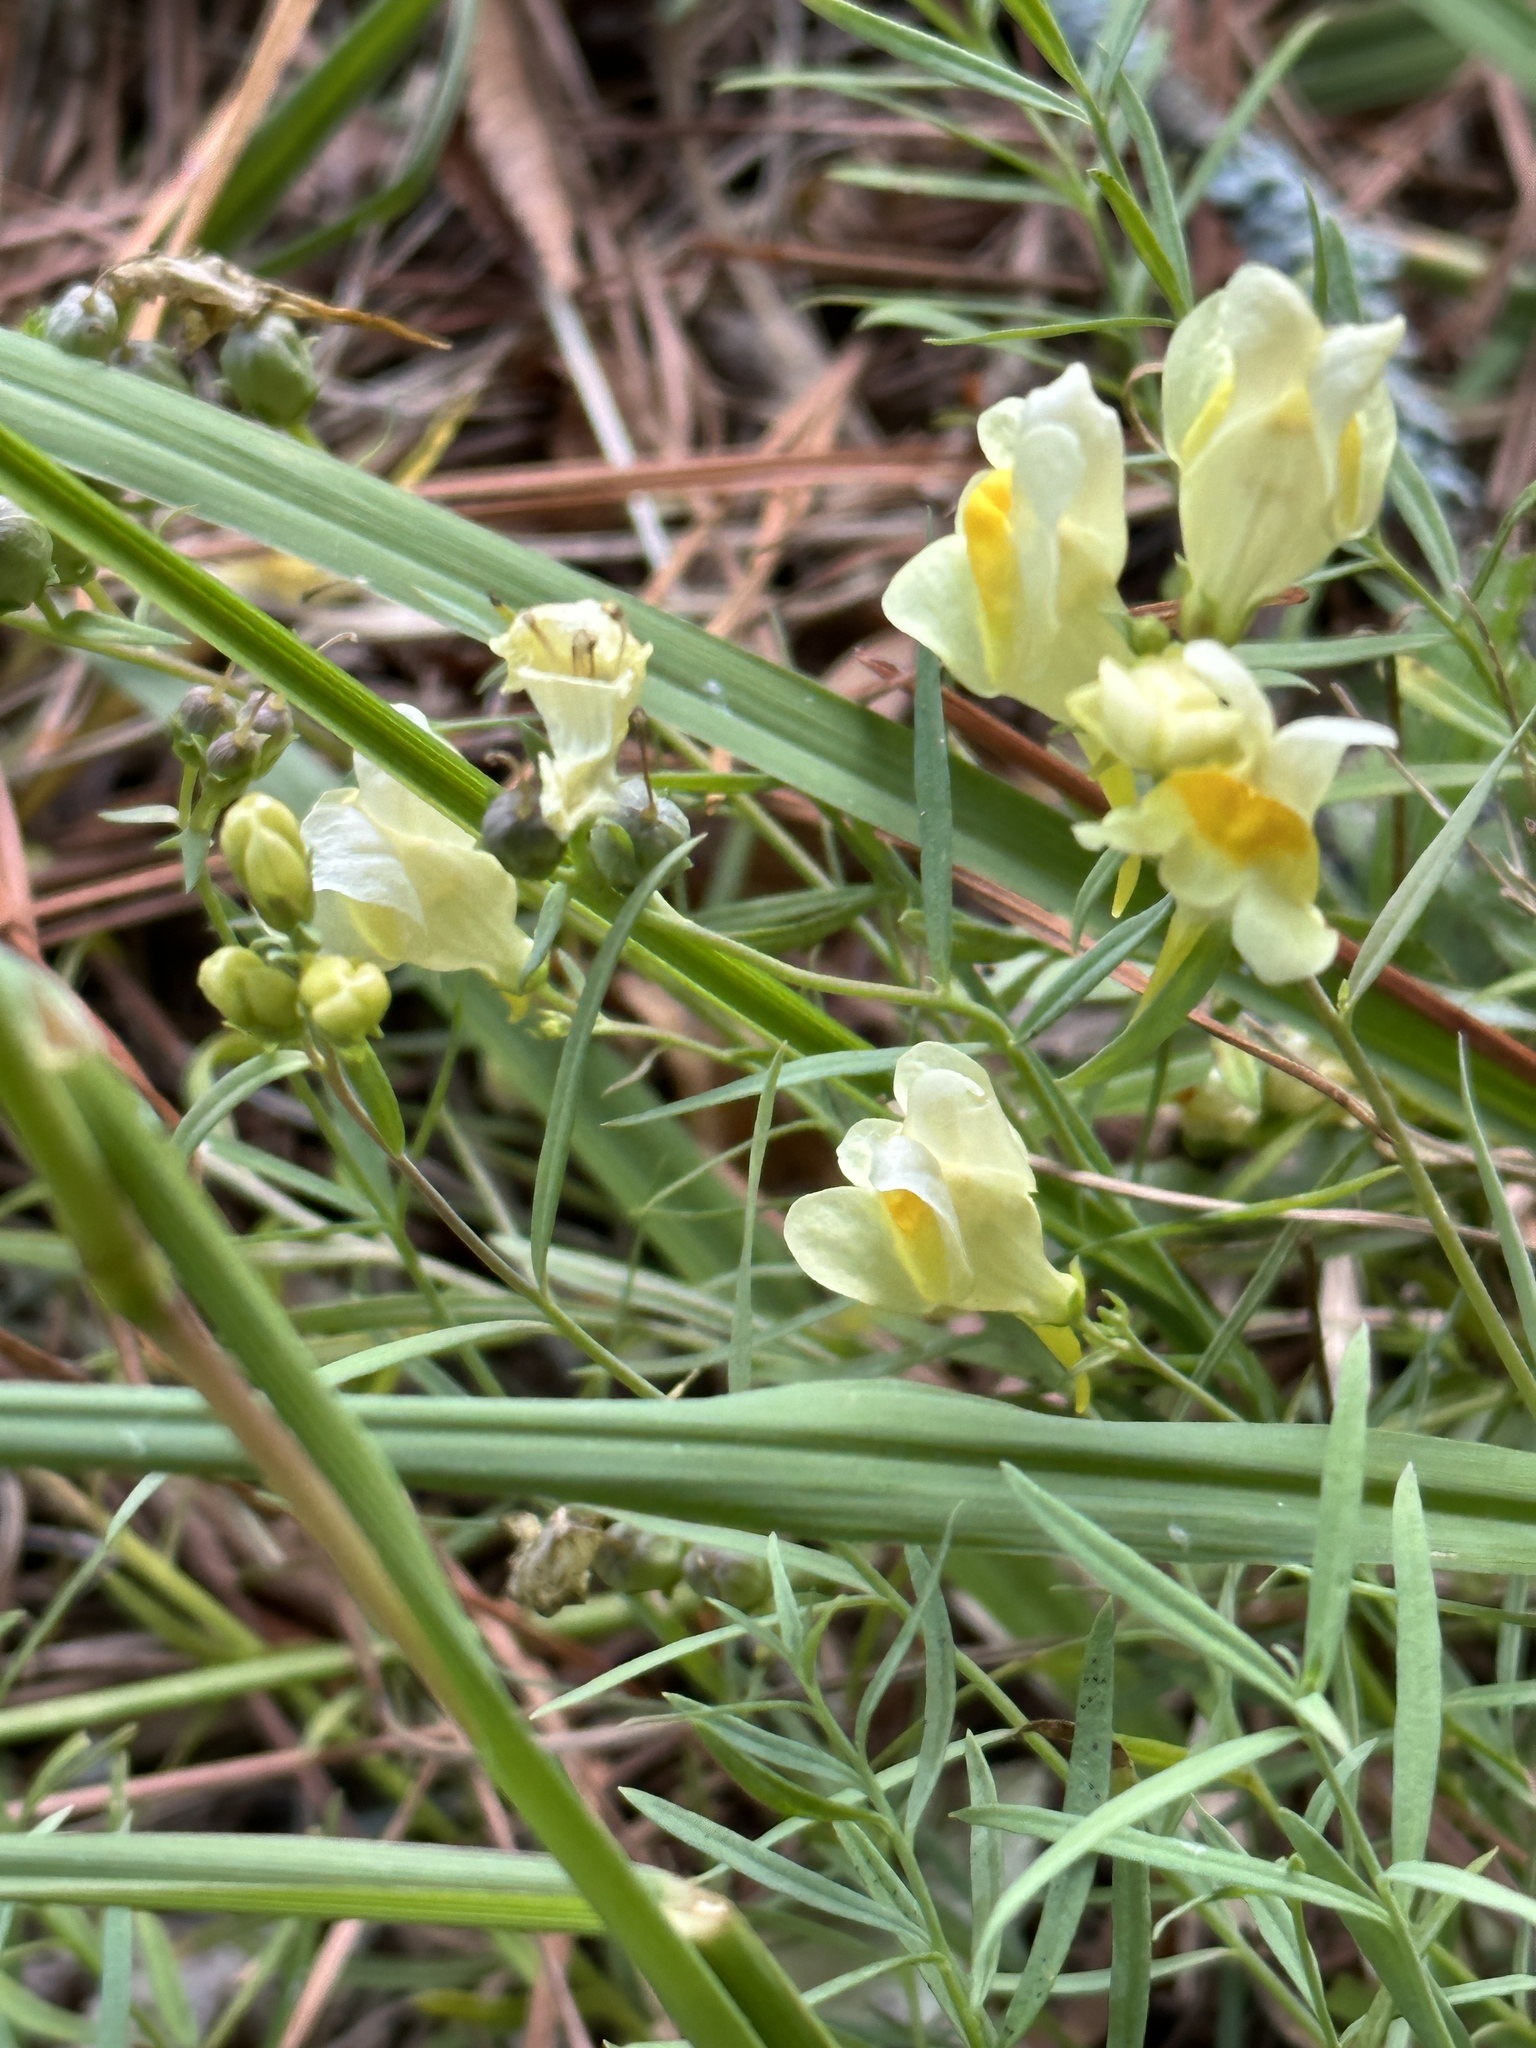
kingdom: Plantae
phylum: Tracheophyta
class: Magnoliopsida
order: Lamiales
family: Plantaginaceae
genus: Linaria
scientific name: Linaria vulgaris
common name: Butter and eggs
